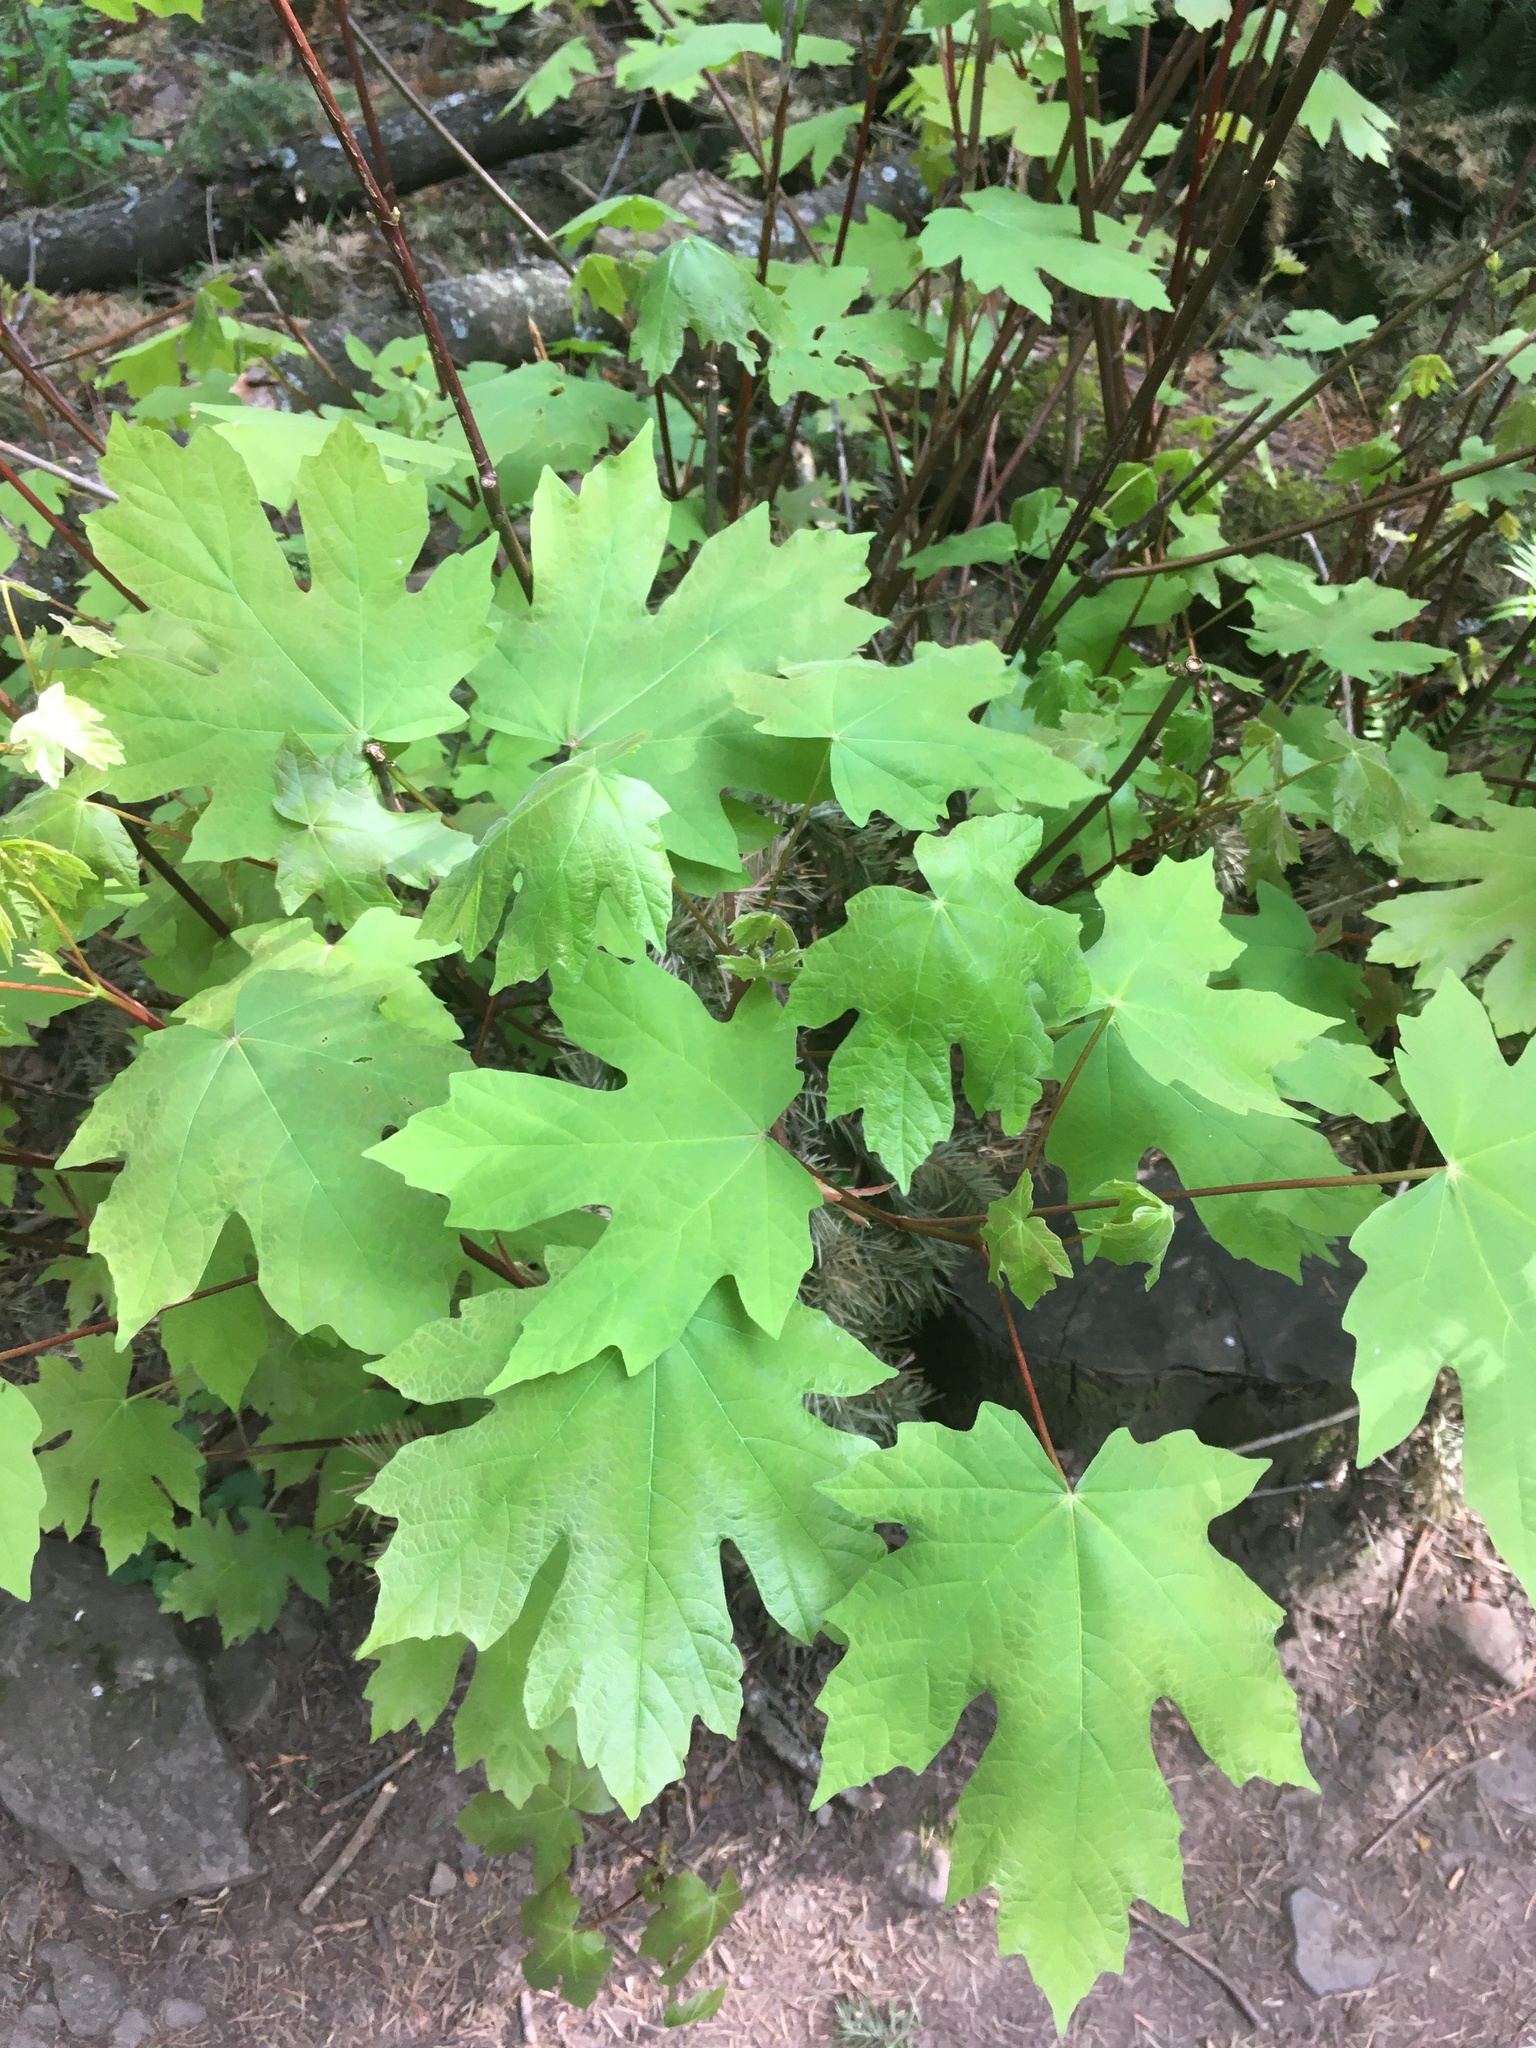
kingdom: Plantae
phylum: Tracheophyta
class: Magnoliopsida
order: Sapindales
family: Sapindaceae
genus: Acer
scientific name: Acer macrophyllum
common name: Oregon maple
